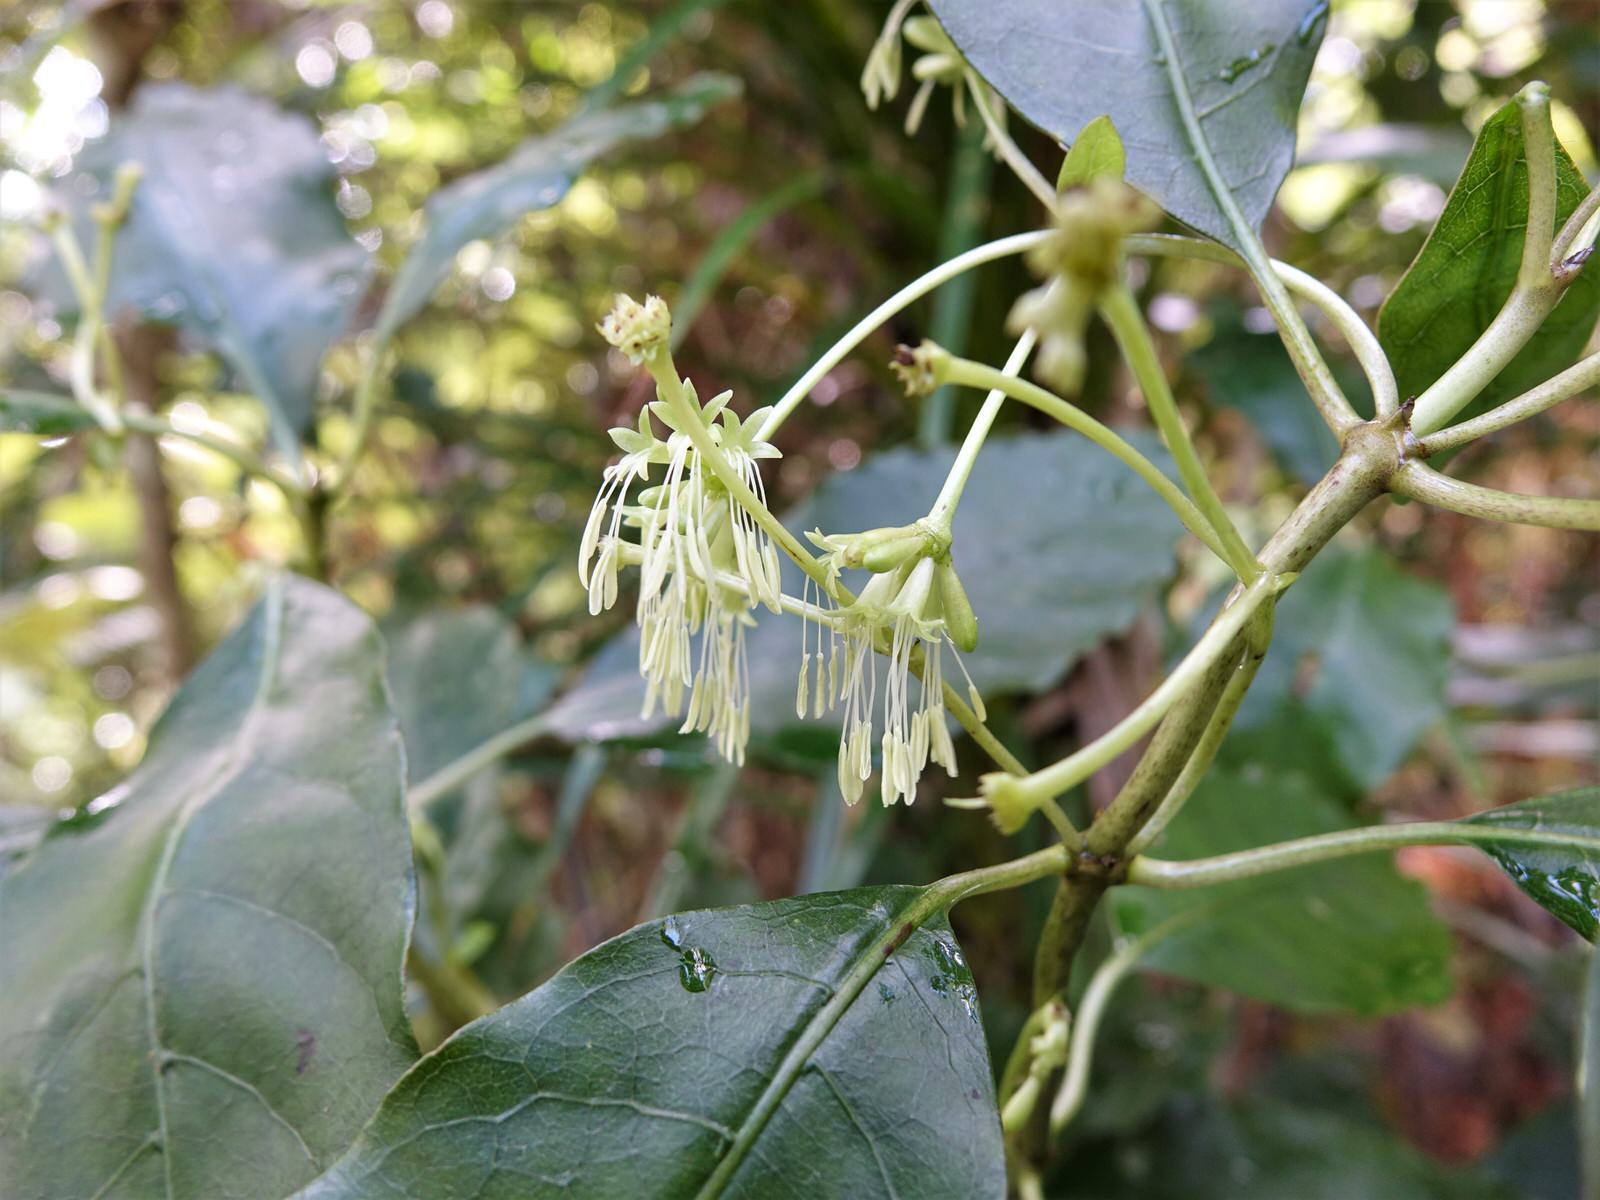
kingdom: Plantae
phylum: Tracheophyta
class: Magnoliopsida
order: Gentianales
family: Rubiaceae
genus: Coprosma
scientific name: Coprosma autumnalis
